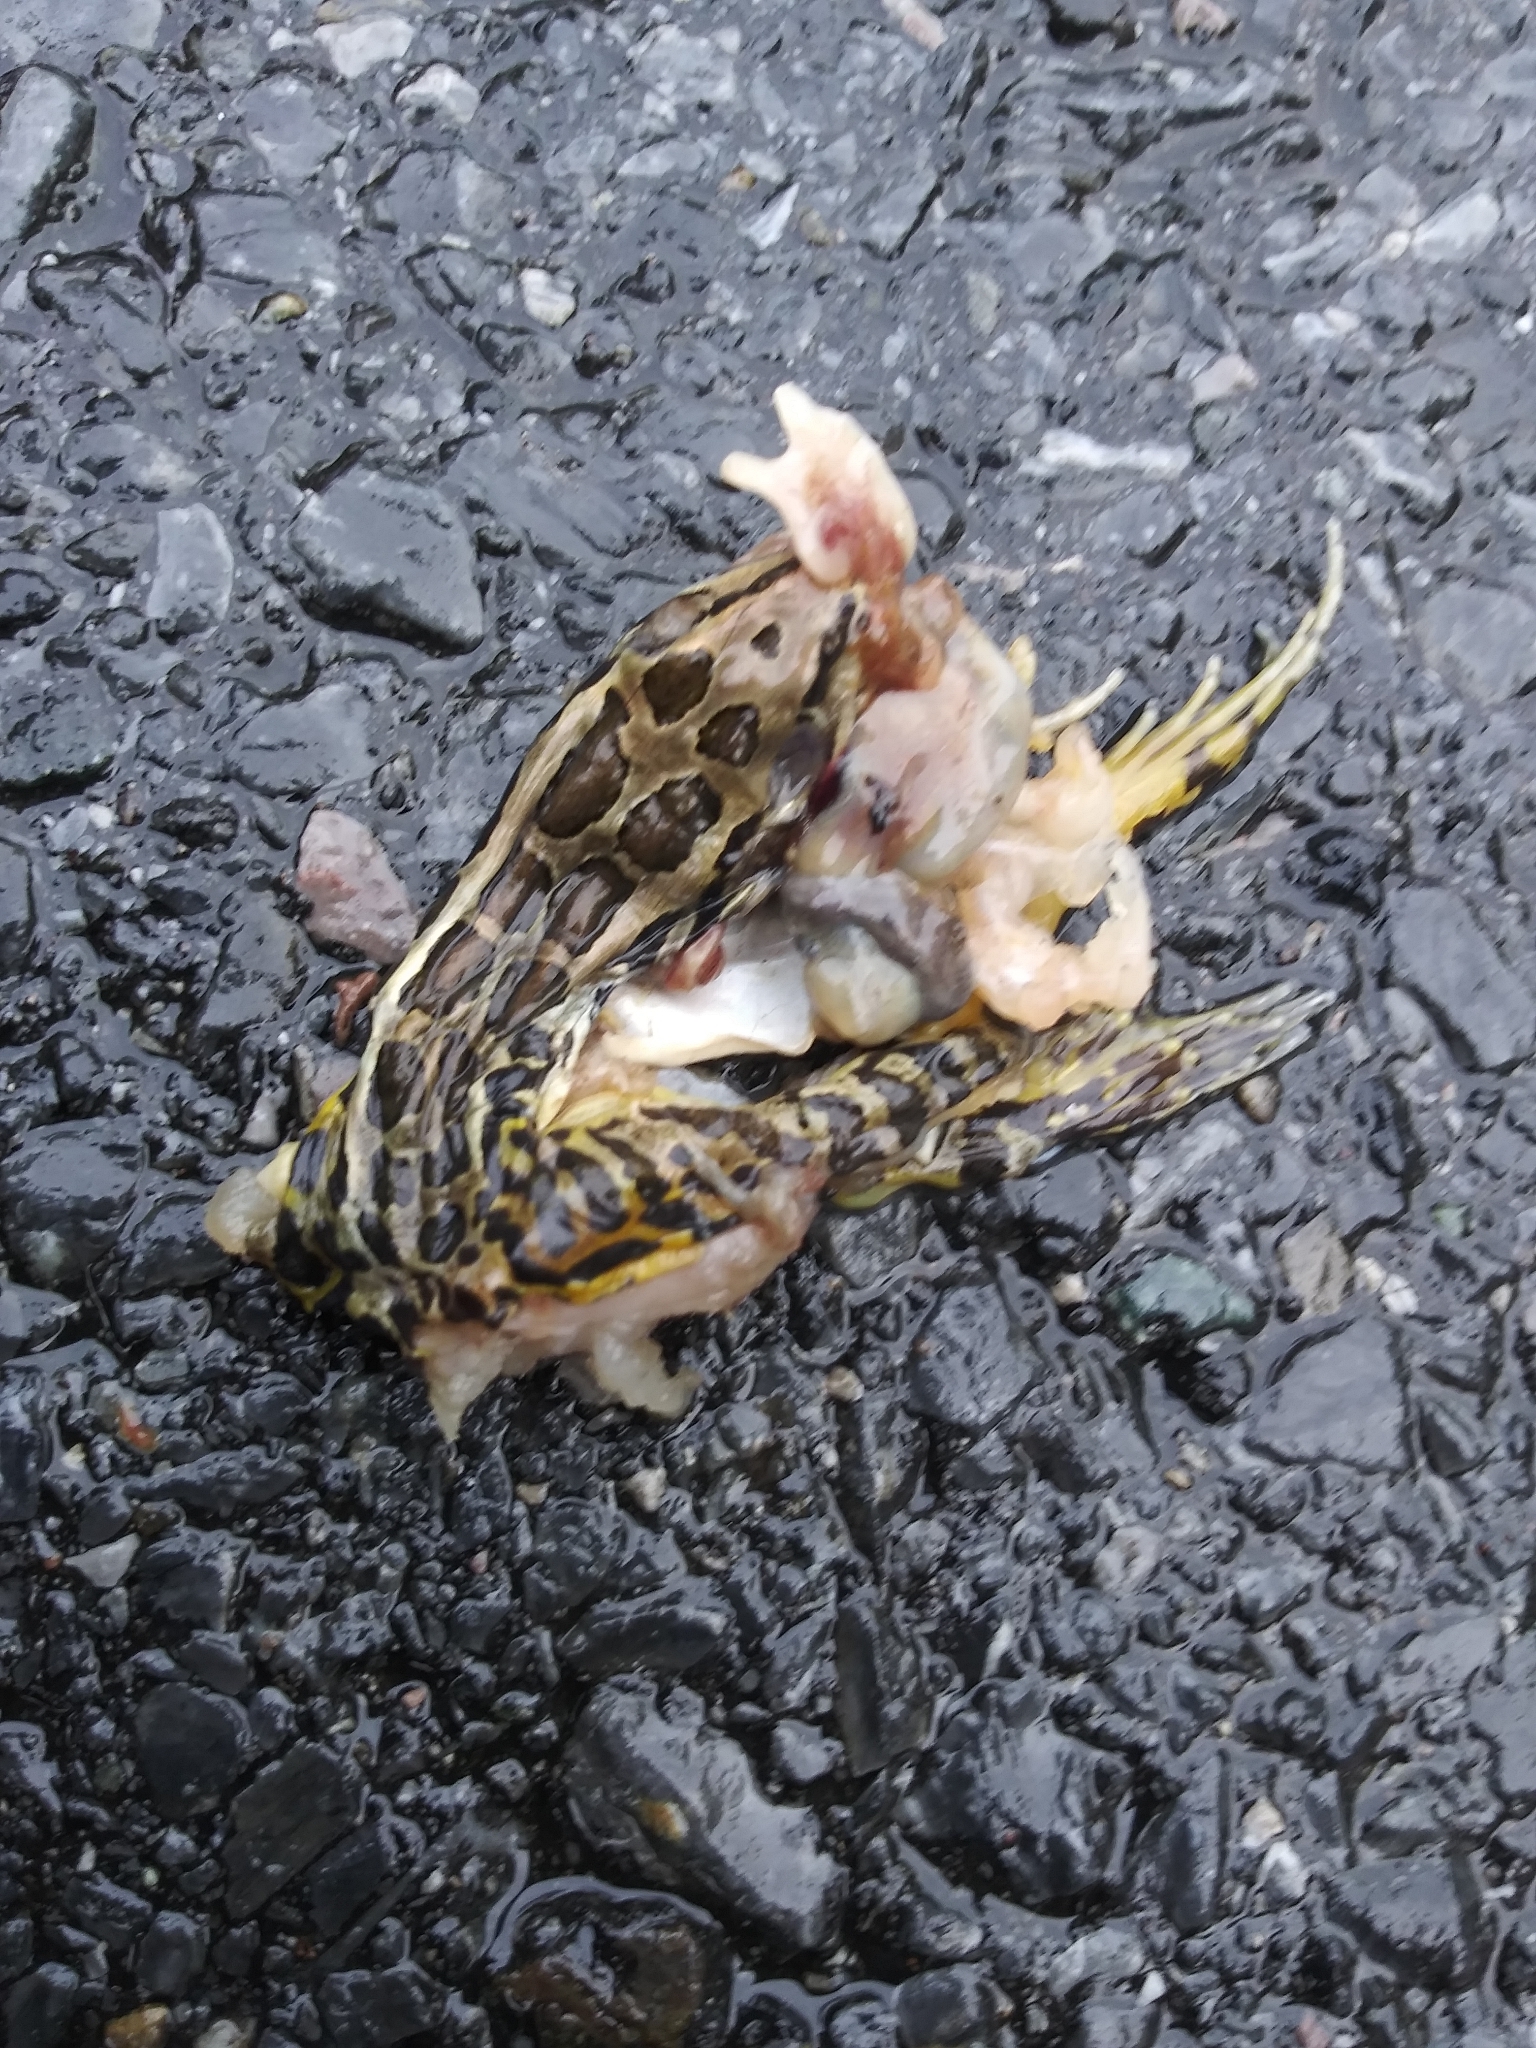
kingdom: Animalia
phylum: Chordata
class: Amphibia
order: Anura
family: Ranidae
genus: Lithobates
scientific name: Lithobates palustris
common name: Pickerel frog
